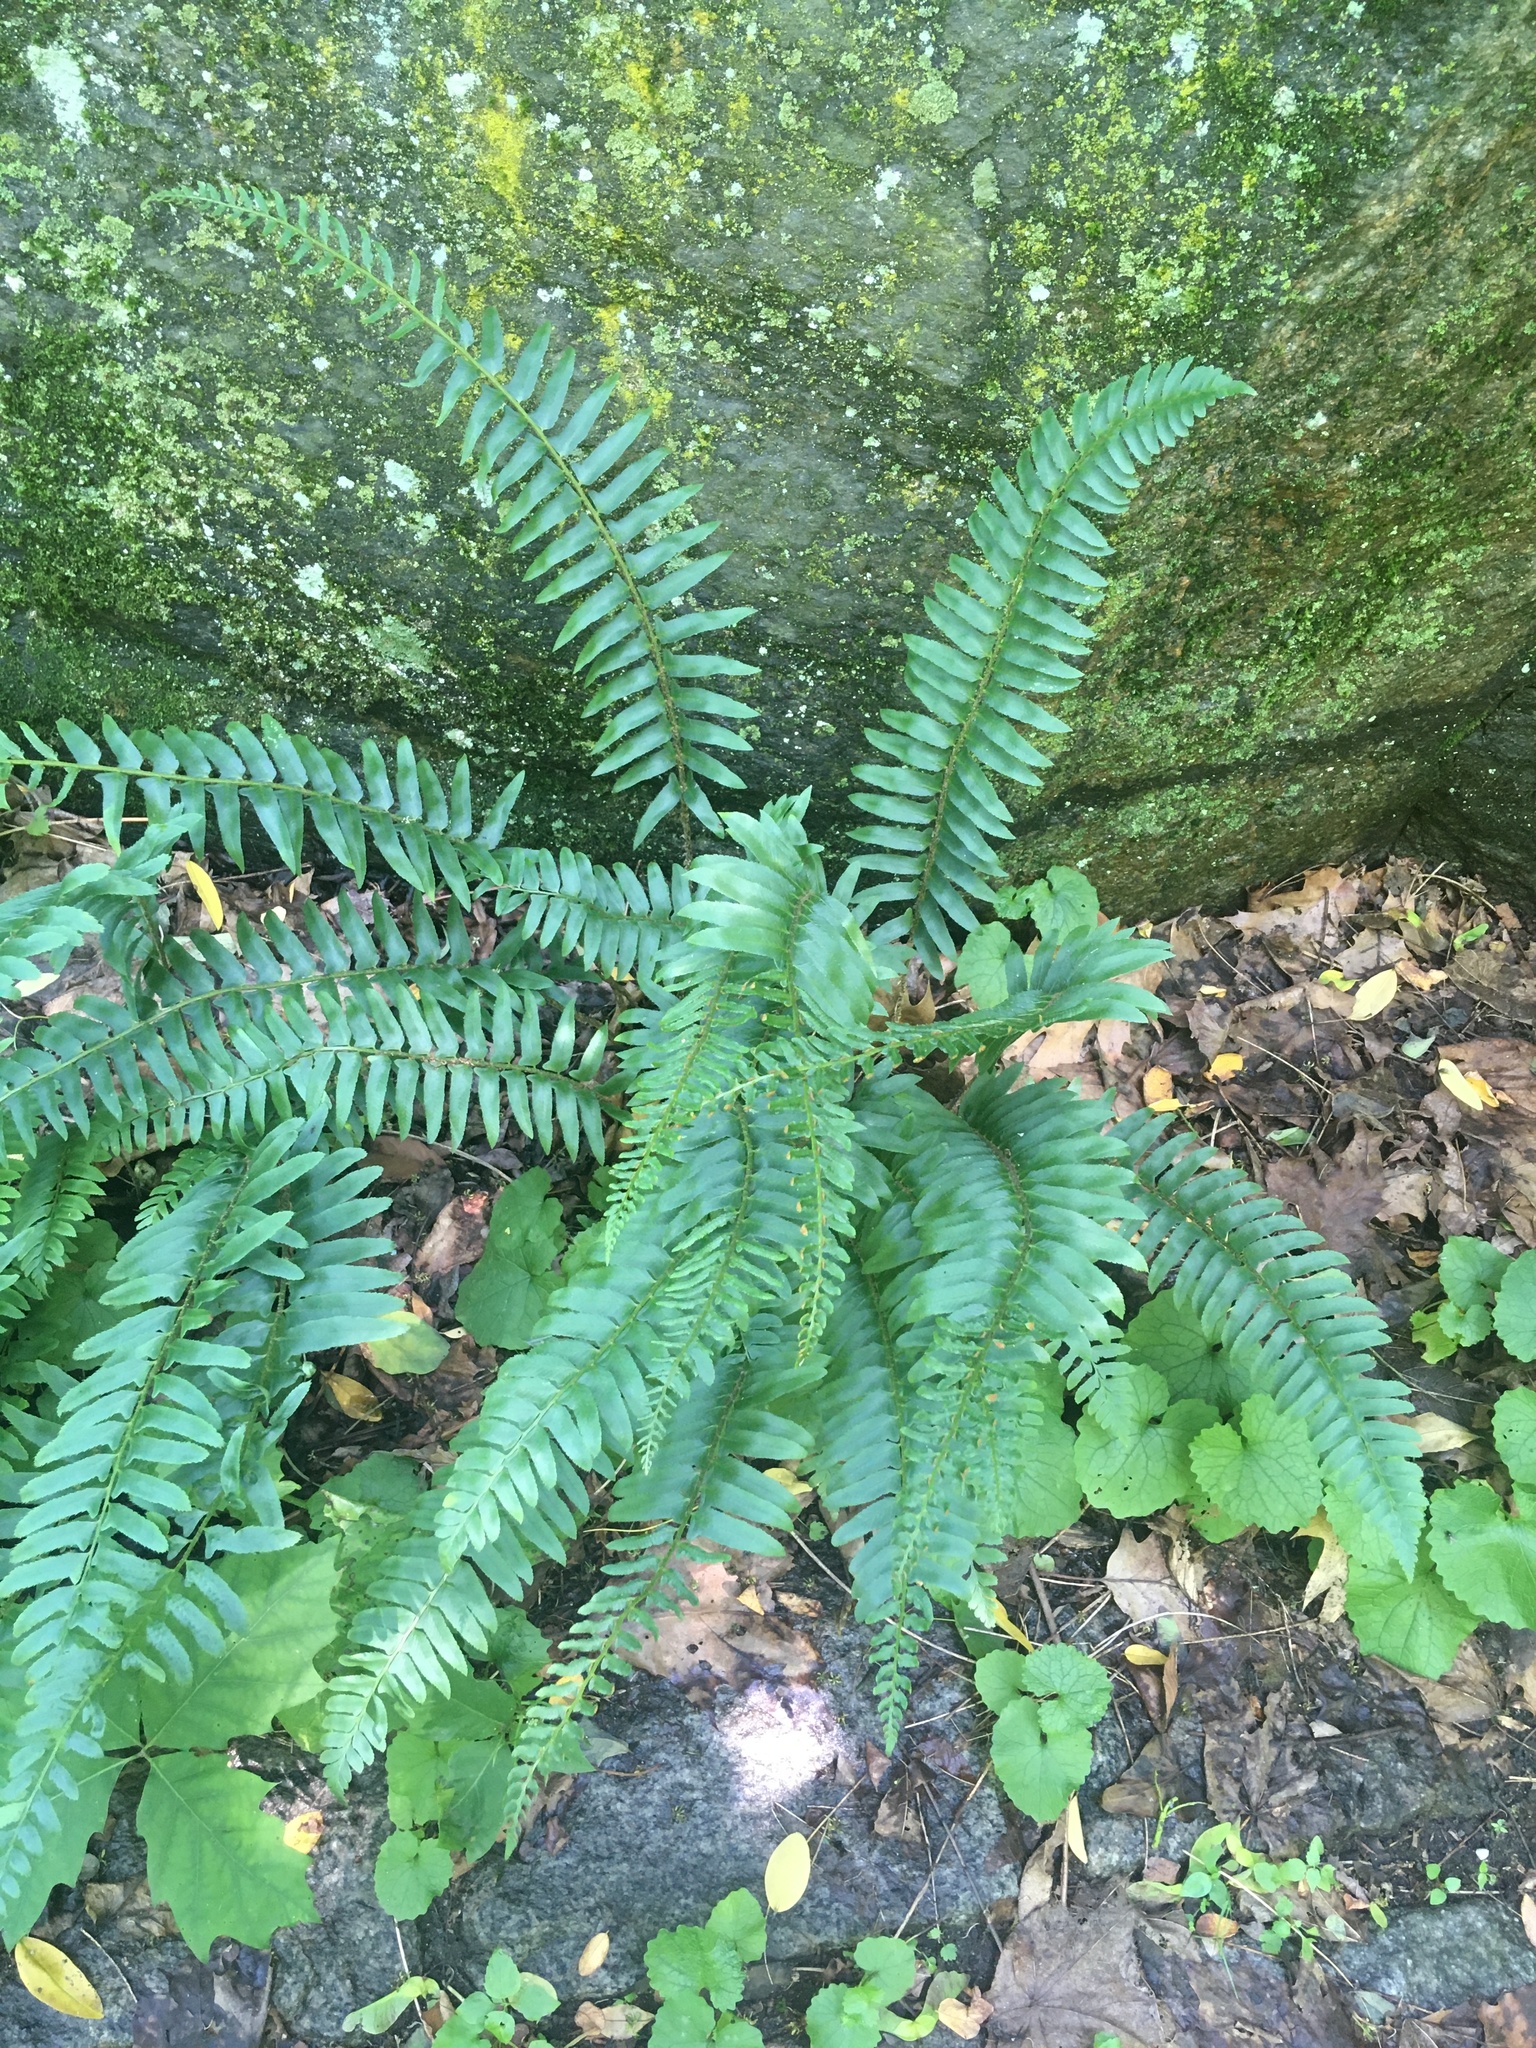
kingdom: Plantae
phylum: Tracheophyta
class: Polypodiopsida
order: Polypodiales
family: Dryopteridaceae
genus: Polystichum
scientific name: Polystichum acrostichoides
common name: Christmas fern
